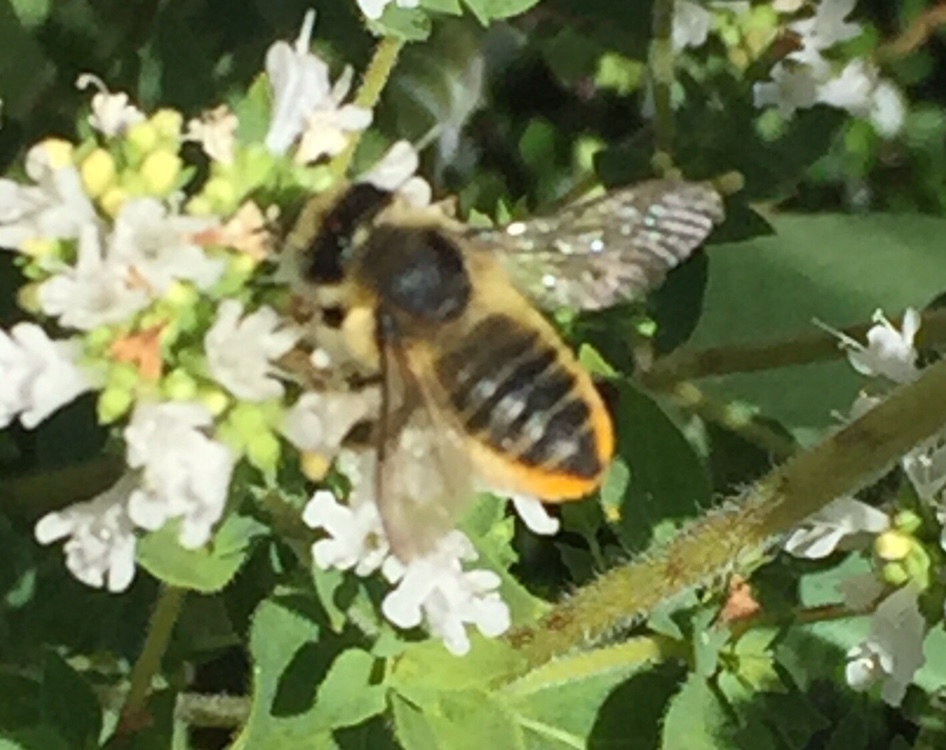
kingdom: Animalia
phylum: Arthropoda
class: Insecta
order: Hymenoptera
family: Megachilidae
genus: Megachile
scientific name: Megachile perihirta
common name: Western leafcutter
